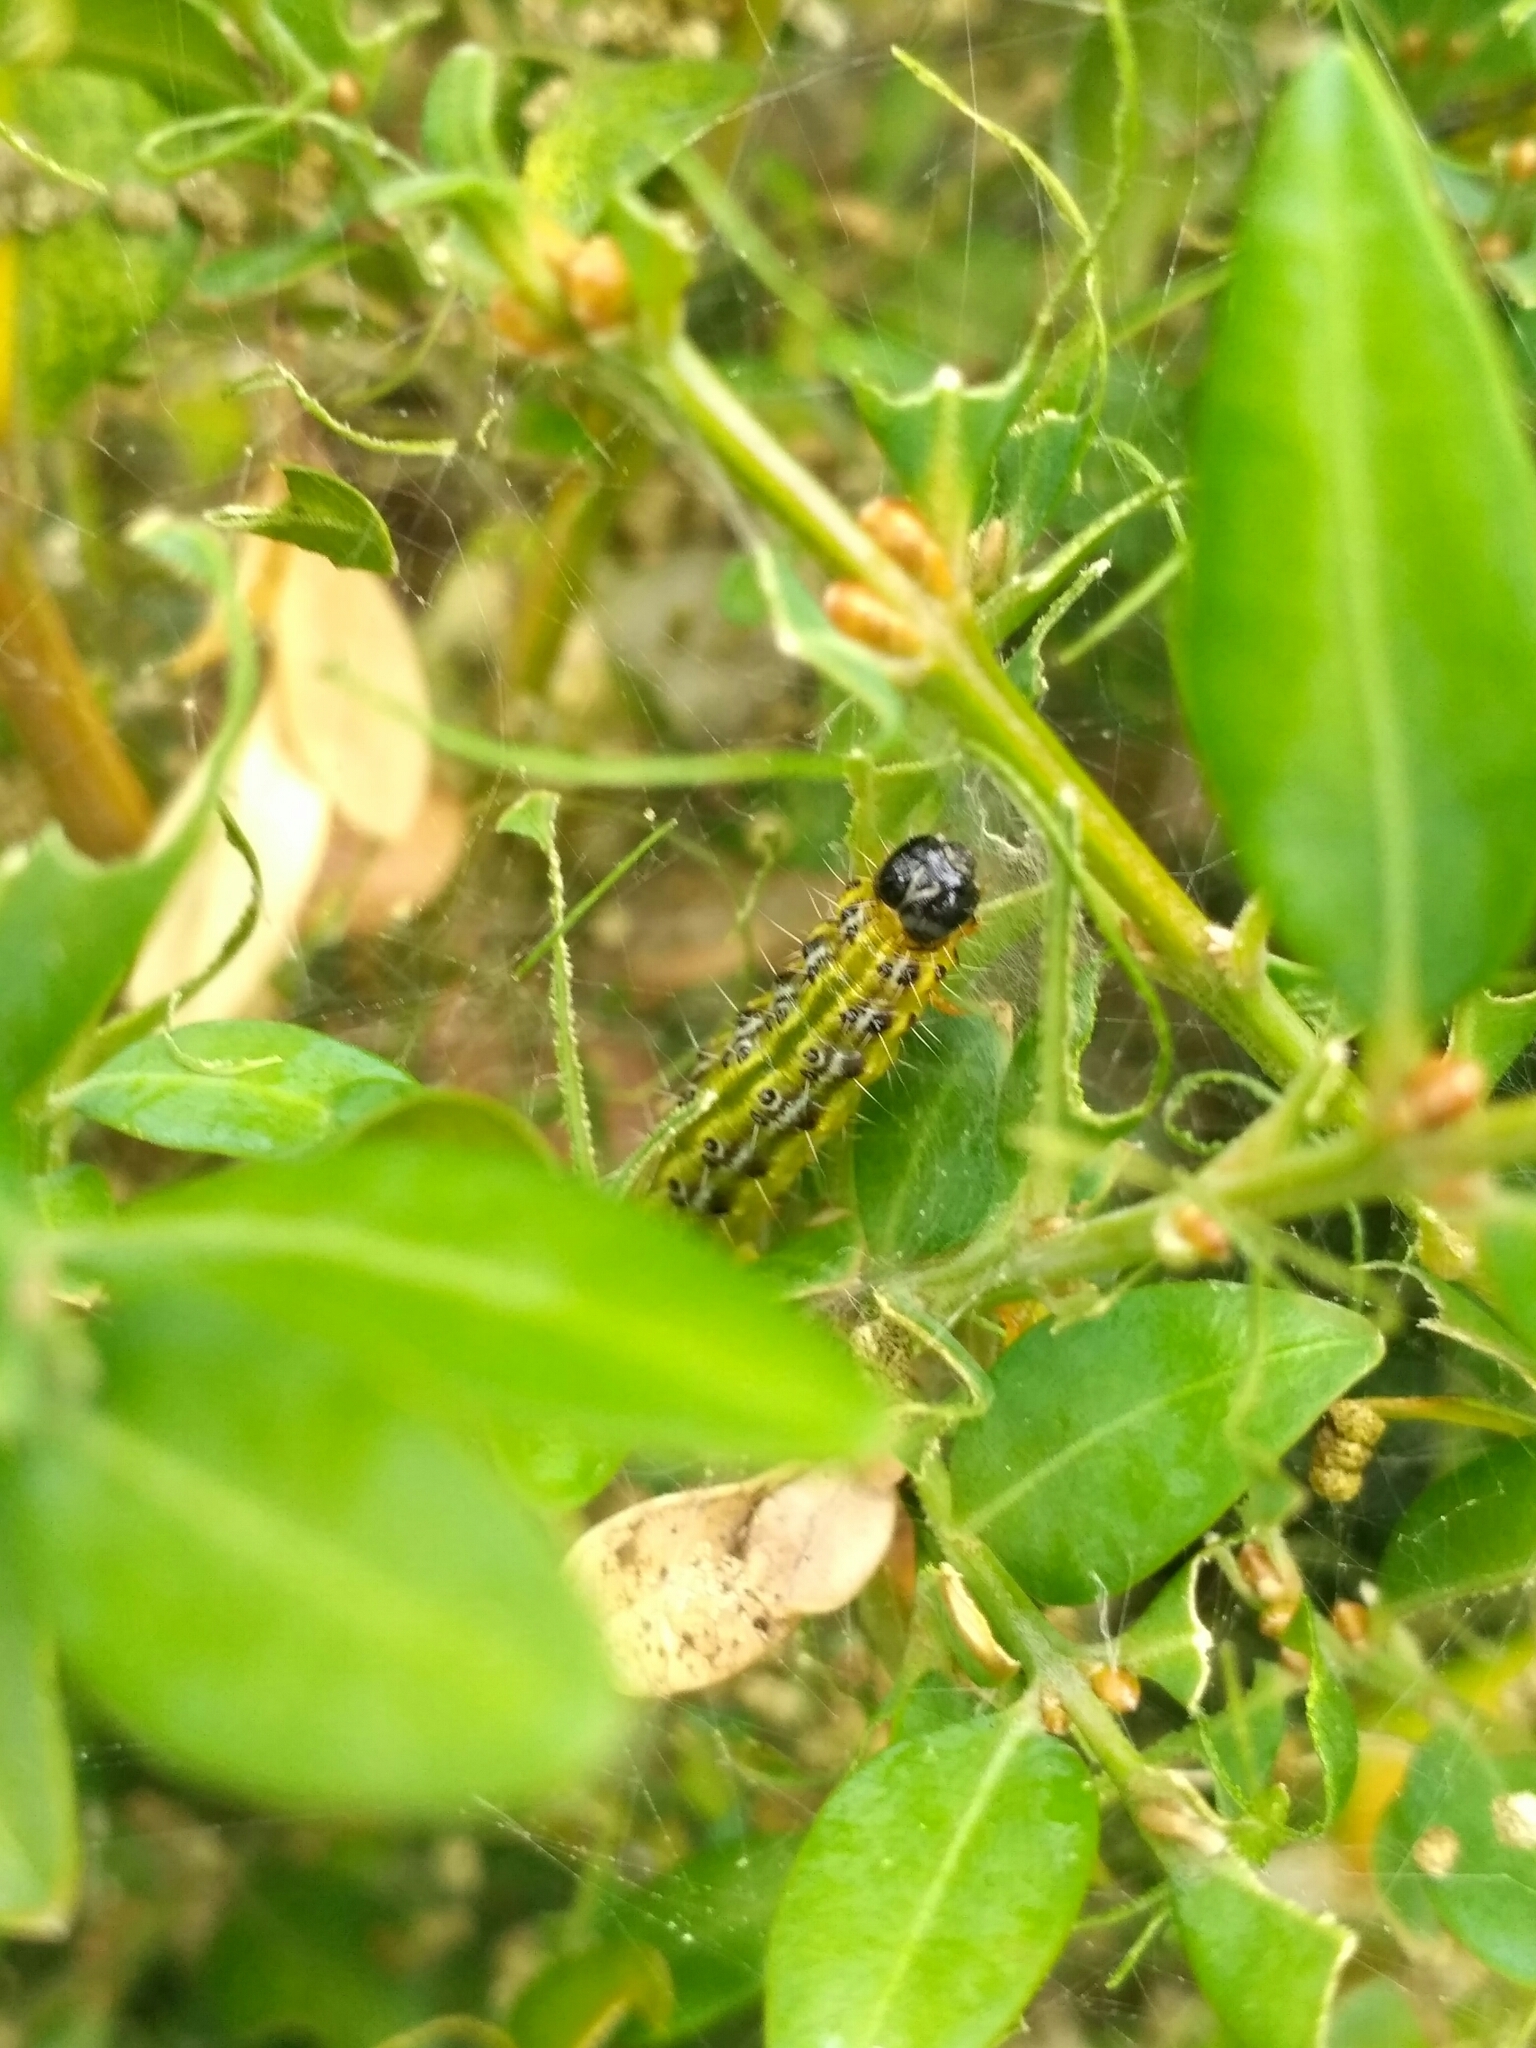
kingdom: Animalia
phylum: Arthropoda
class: Insecta
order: Lepidoptera
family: Crambidae
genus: Cydalima
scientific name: Cydalima perspectalis
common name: Box tree moth
